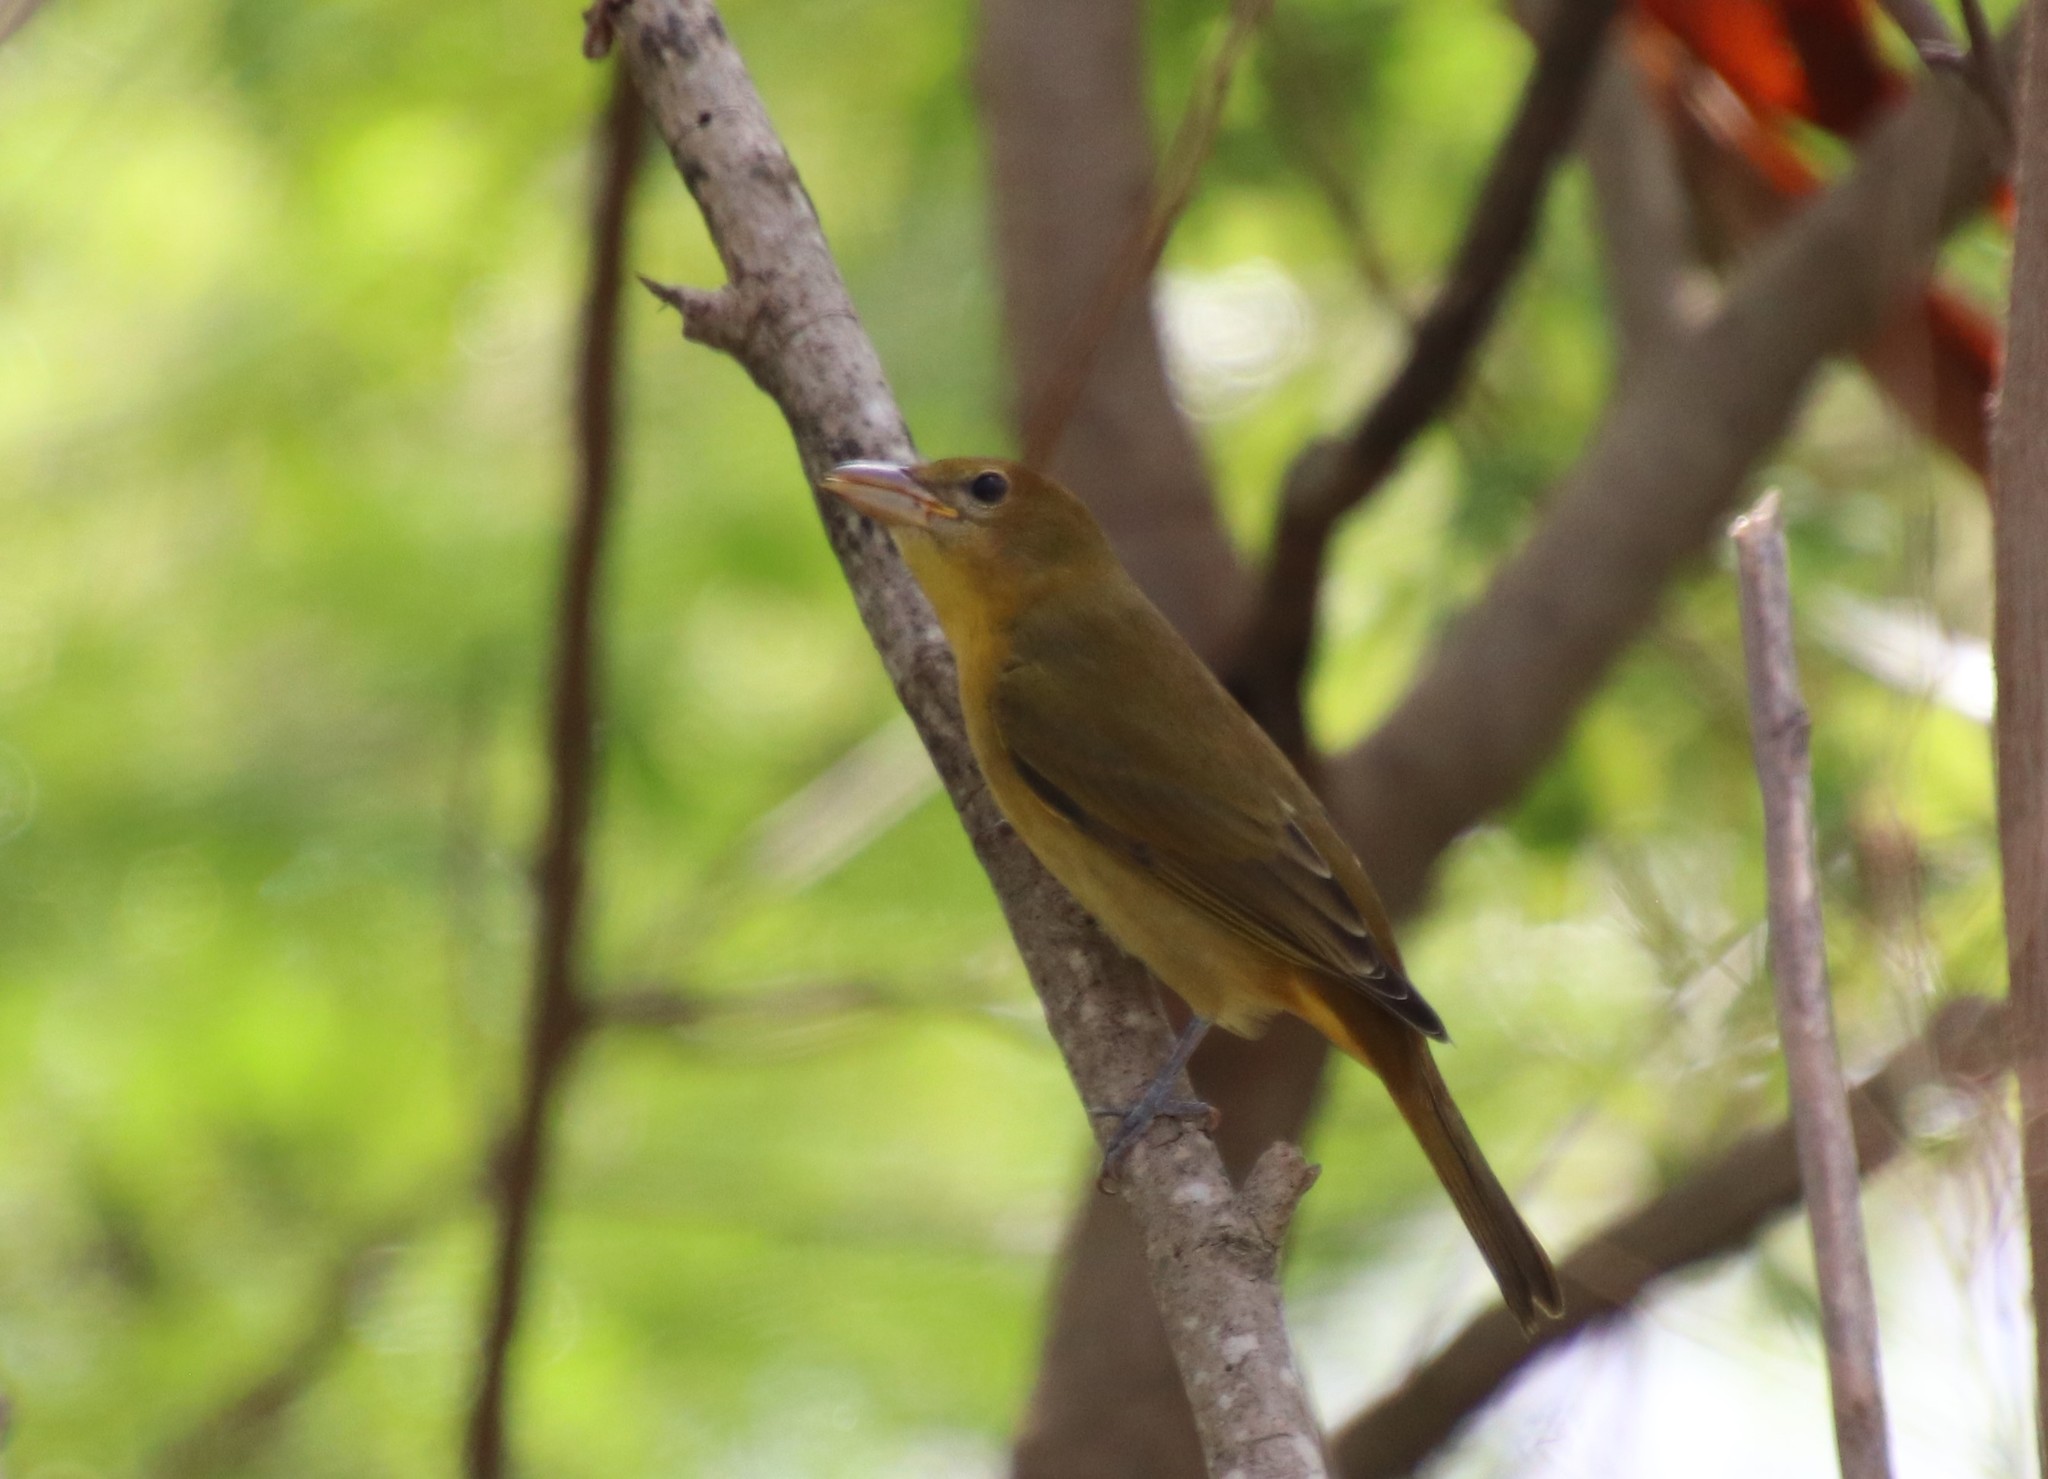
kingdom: Animalia
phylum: Chordata
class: Aves
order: Passeriformes
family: Cardinalidae
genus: Piranga
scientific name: Piranga rubra
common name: Summer tanager
